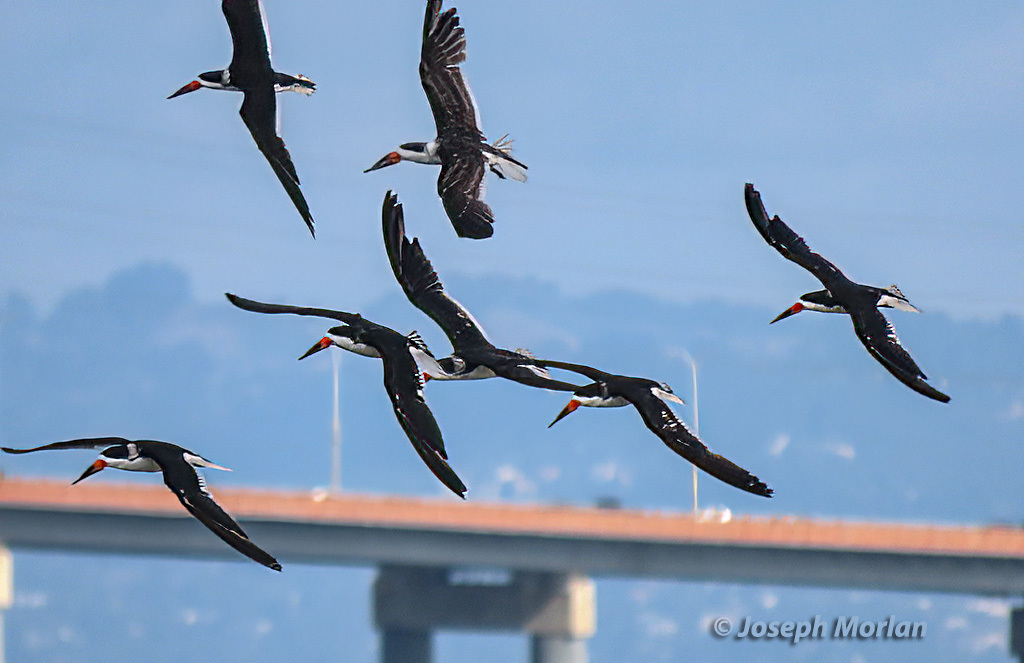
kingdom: Animalia
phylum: Chordata
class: Aves
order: Charadriiformes
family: Laridae
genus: Rynchops
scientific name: Rynchops niger
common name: Black skimmer
